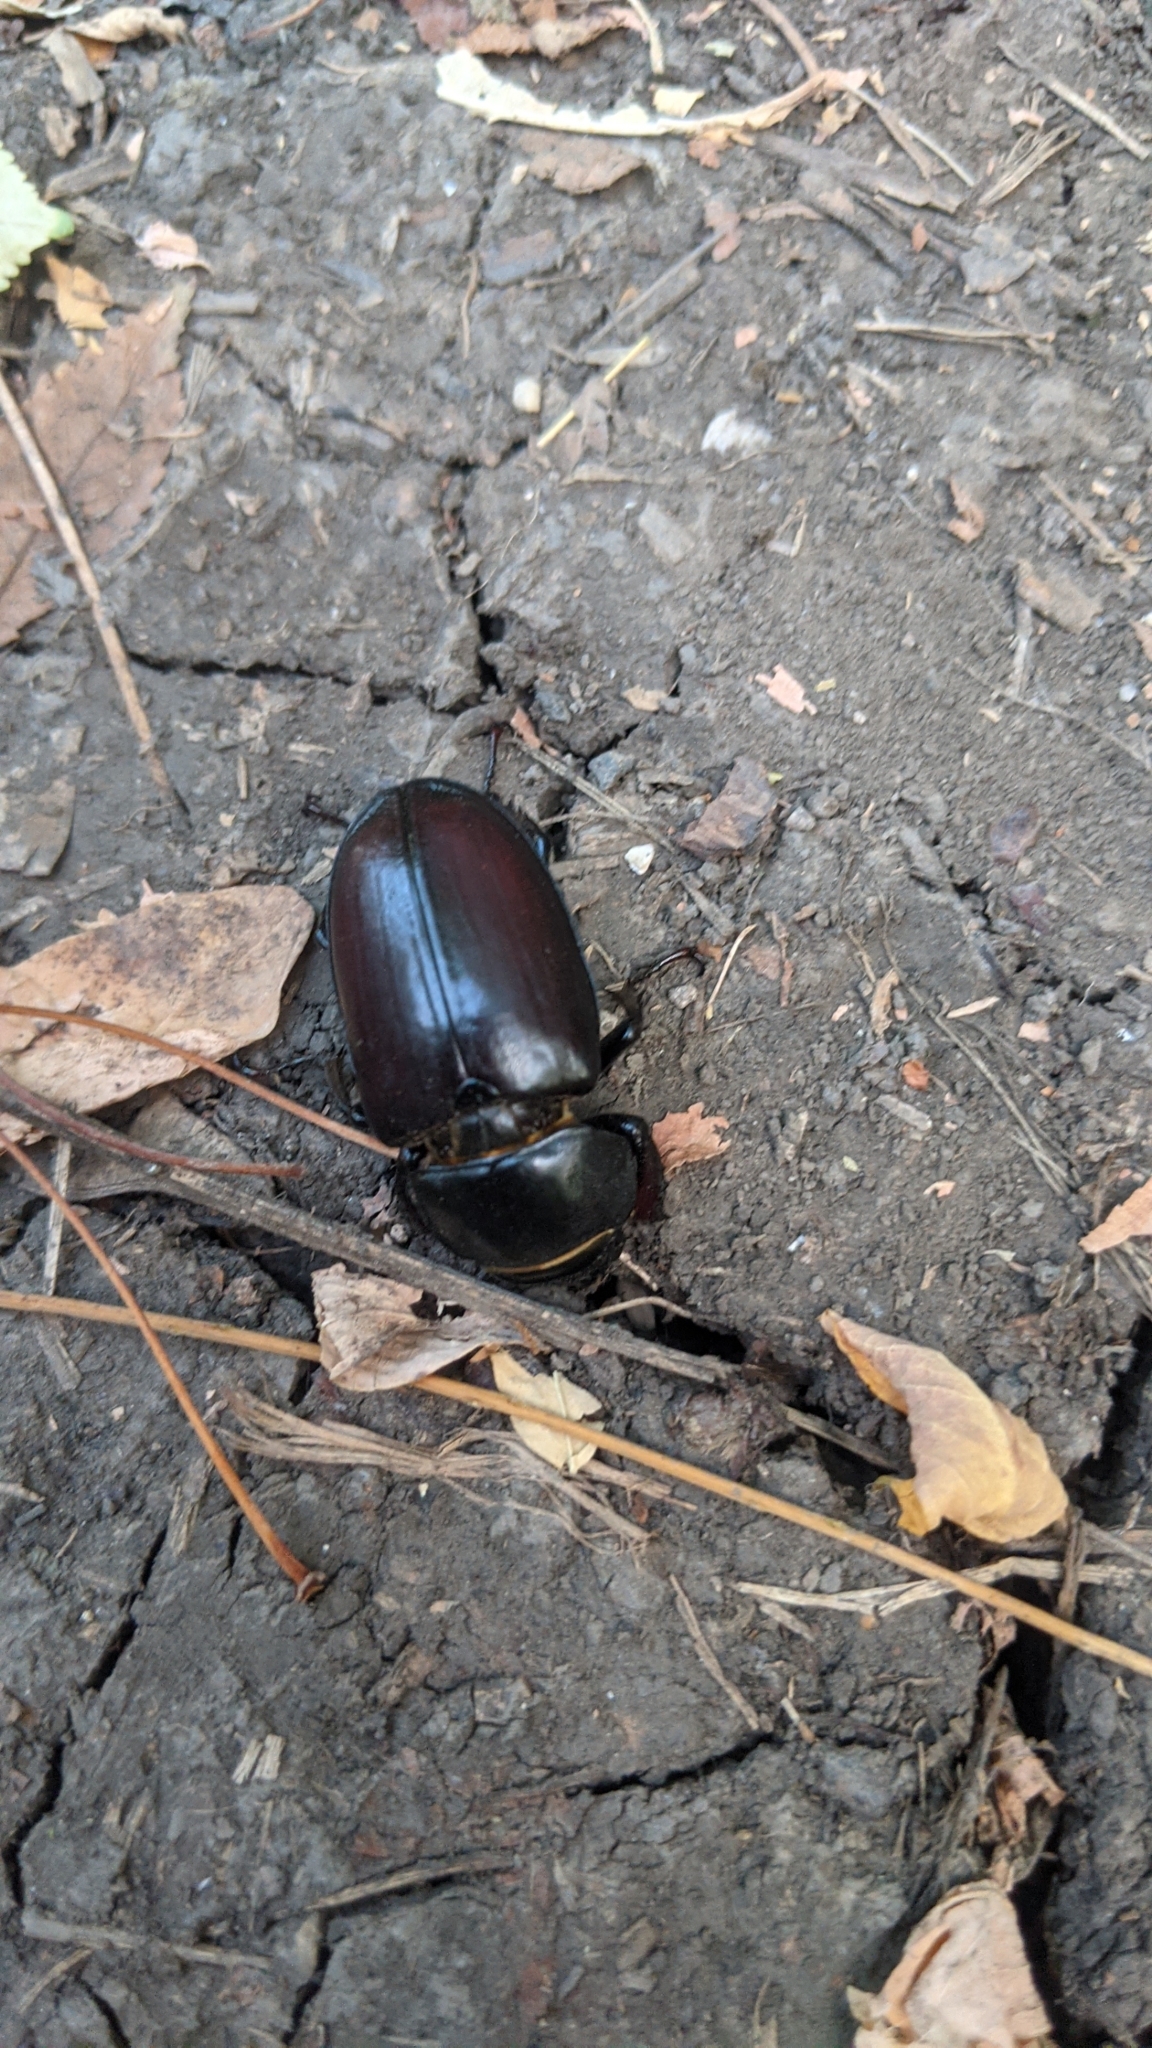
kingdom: Animalia
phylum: Arthropoda
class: Insecta
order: Coleoptera
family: Lucanidae
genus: Lucanus
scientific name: Lucanus cervus
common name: Stag beetle
